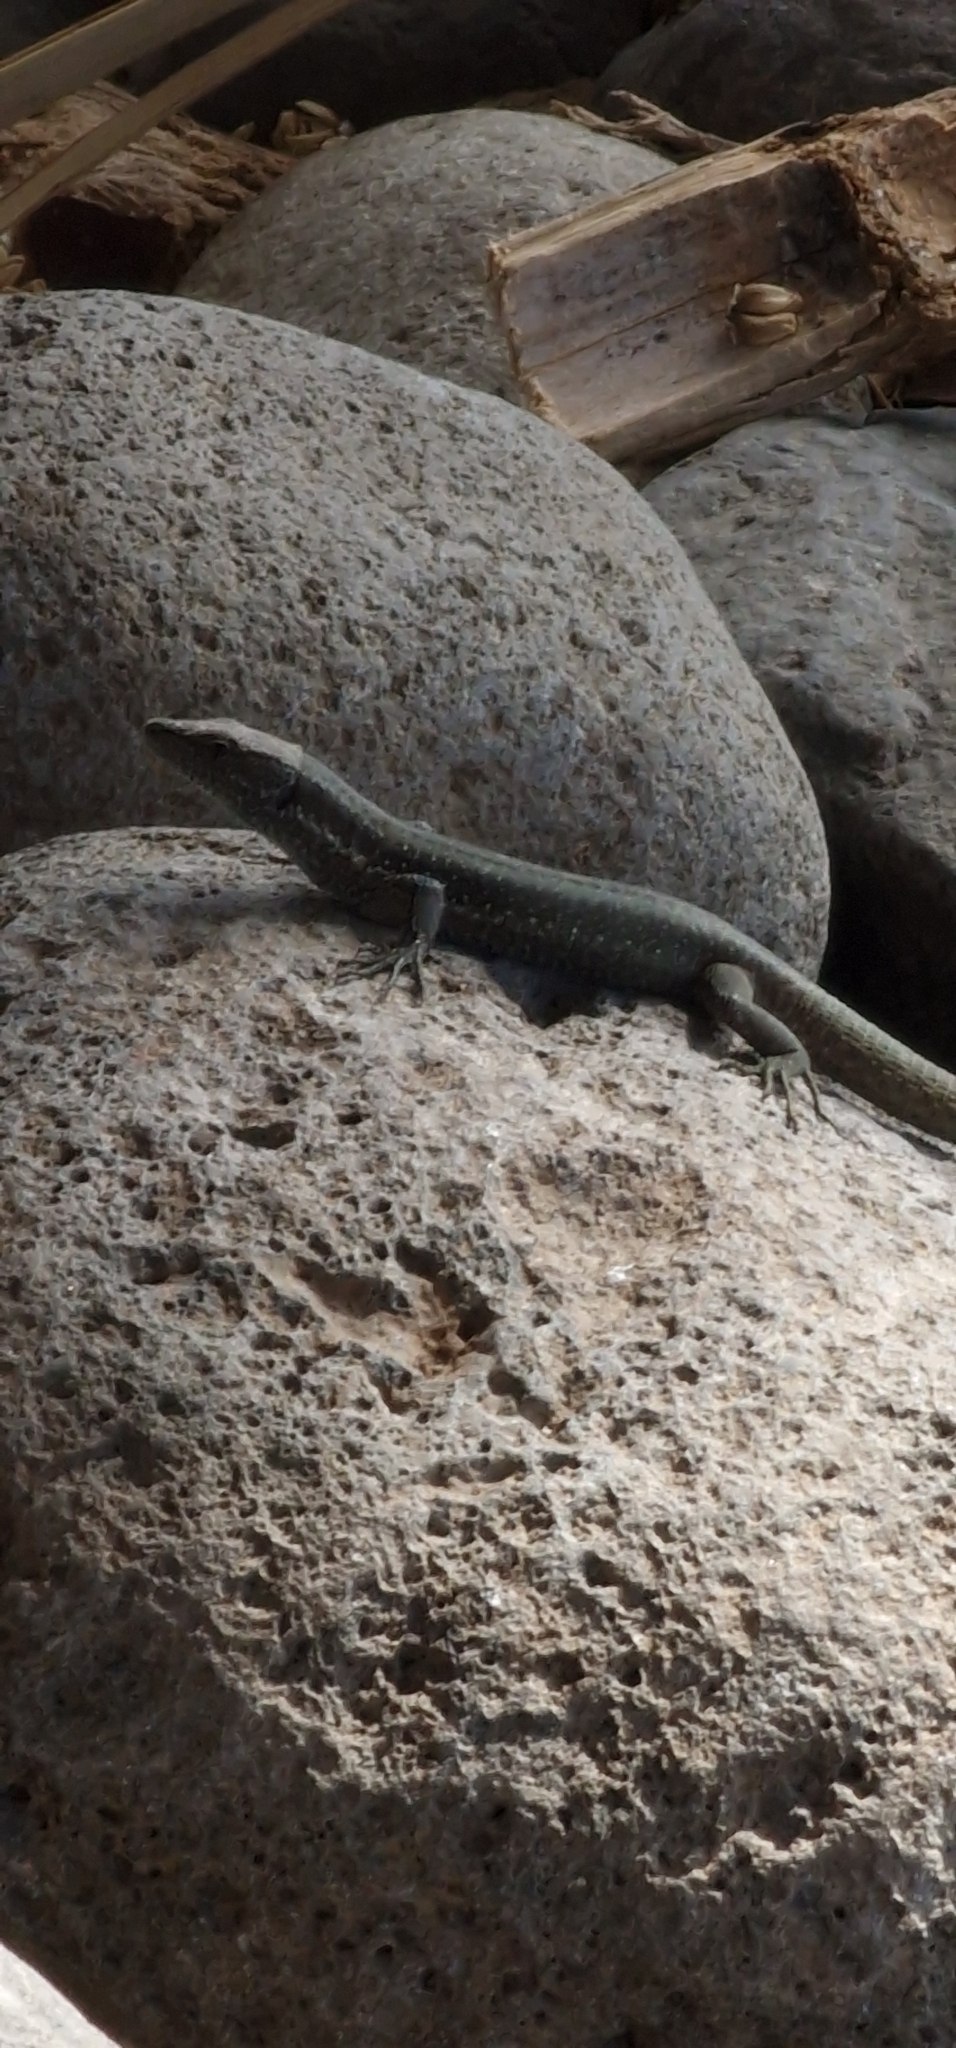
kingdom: Animalia
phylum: Chordata
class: Squamata
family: Lacertidae
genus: Teira
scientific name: Teira dugesii
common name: Madeira lizard
